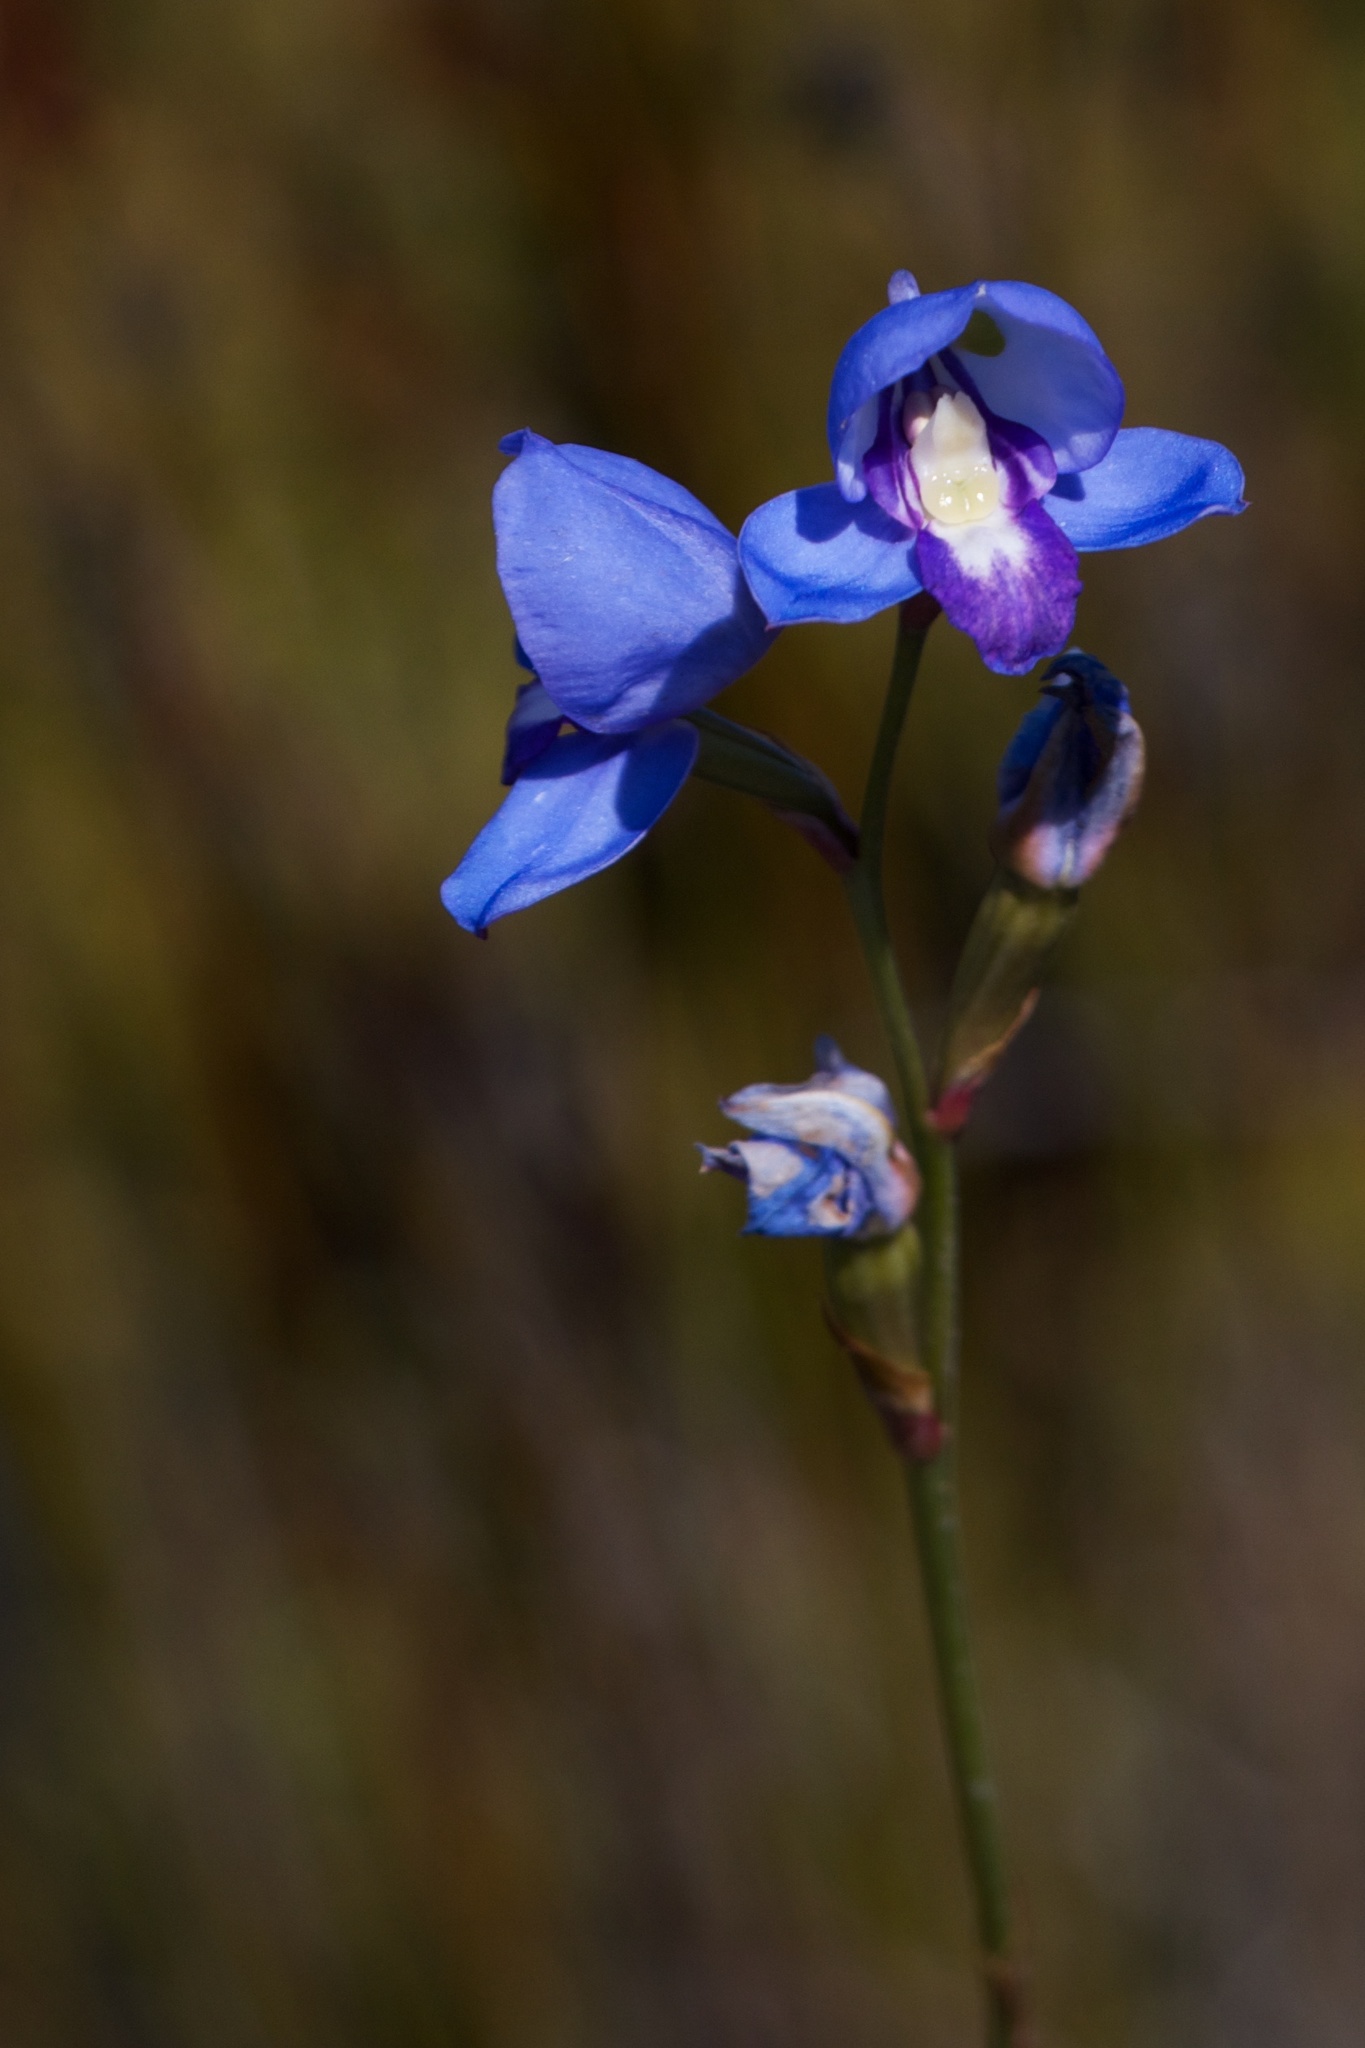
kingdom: Plantae
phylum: Tracheophyta
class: Liliopsida
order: Asparagales
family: Orchidaceae
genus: Disa
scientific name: Disa graminifolia
